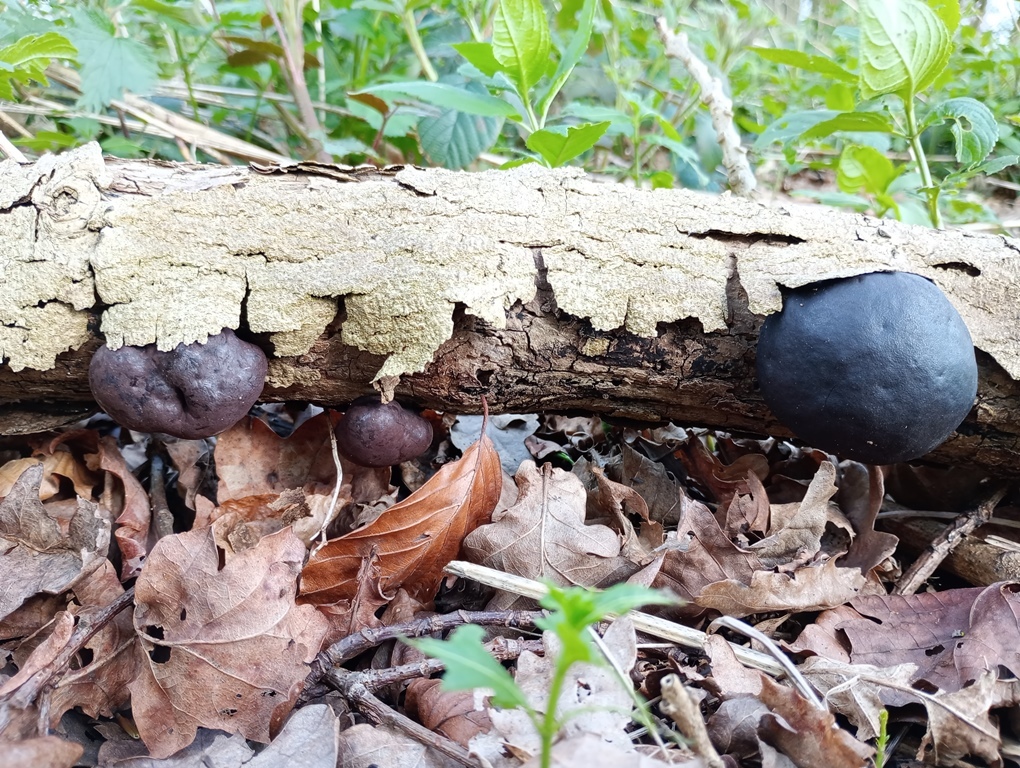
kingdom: Fungi
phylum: Ascomycota
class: Sordariomycetes
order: Xylariales
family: Hypoxylaceae
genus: Daldinia
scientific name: Daldinia concentrica
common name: Cramp balls
